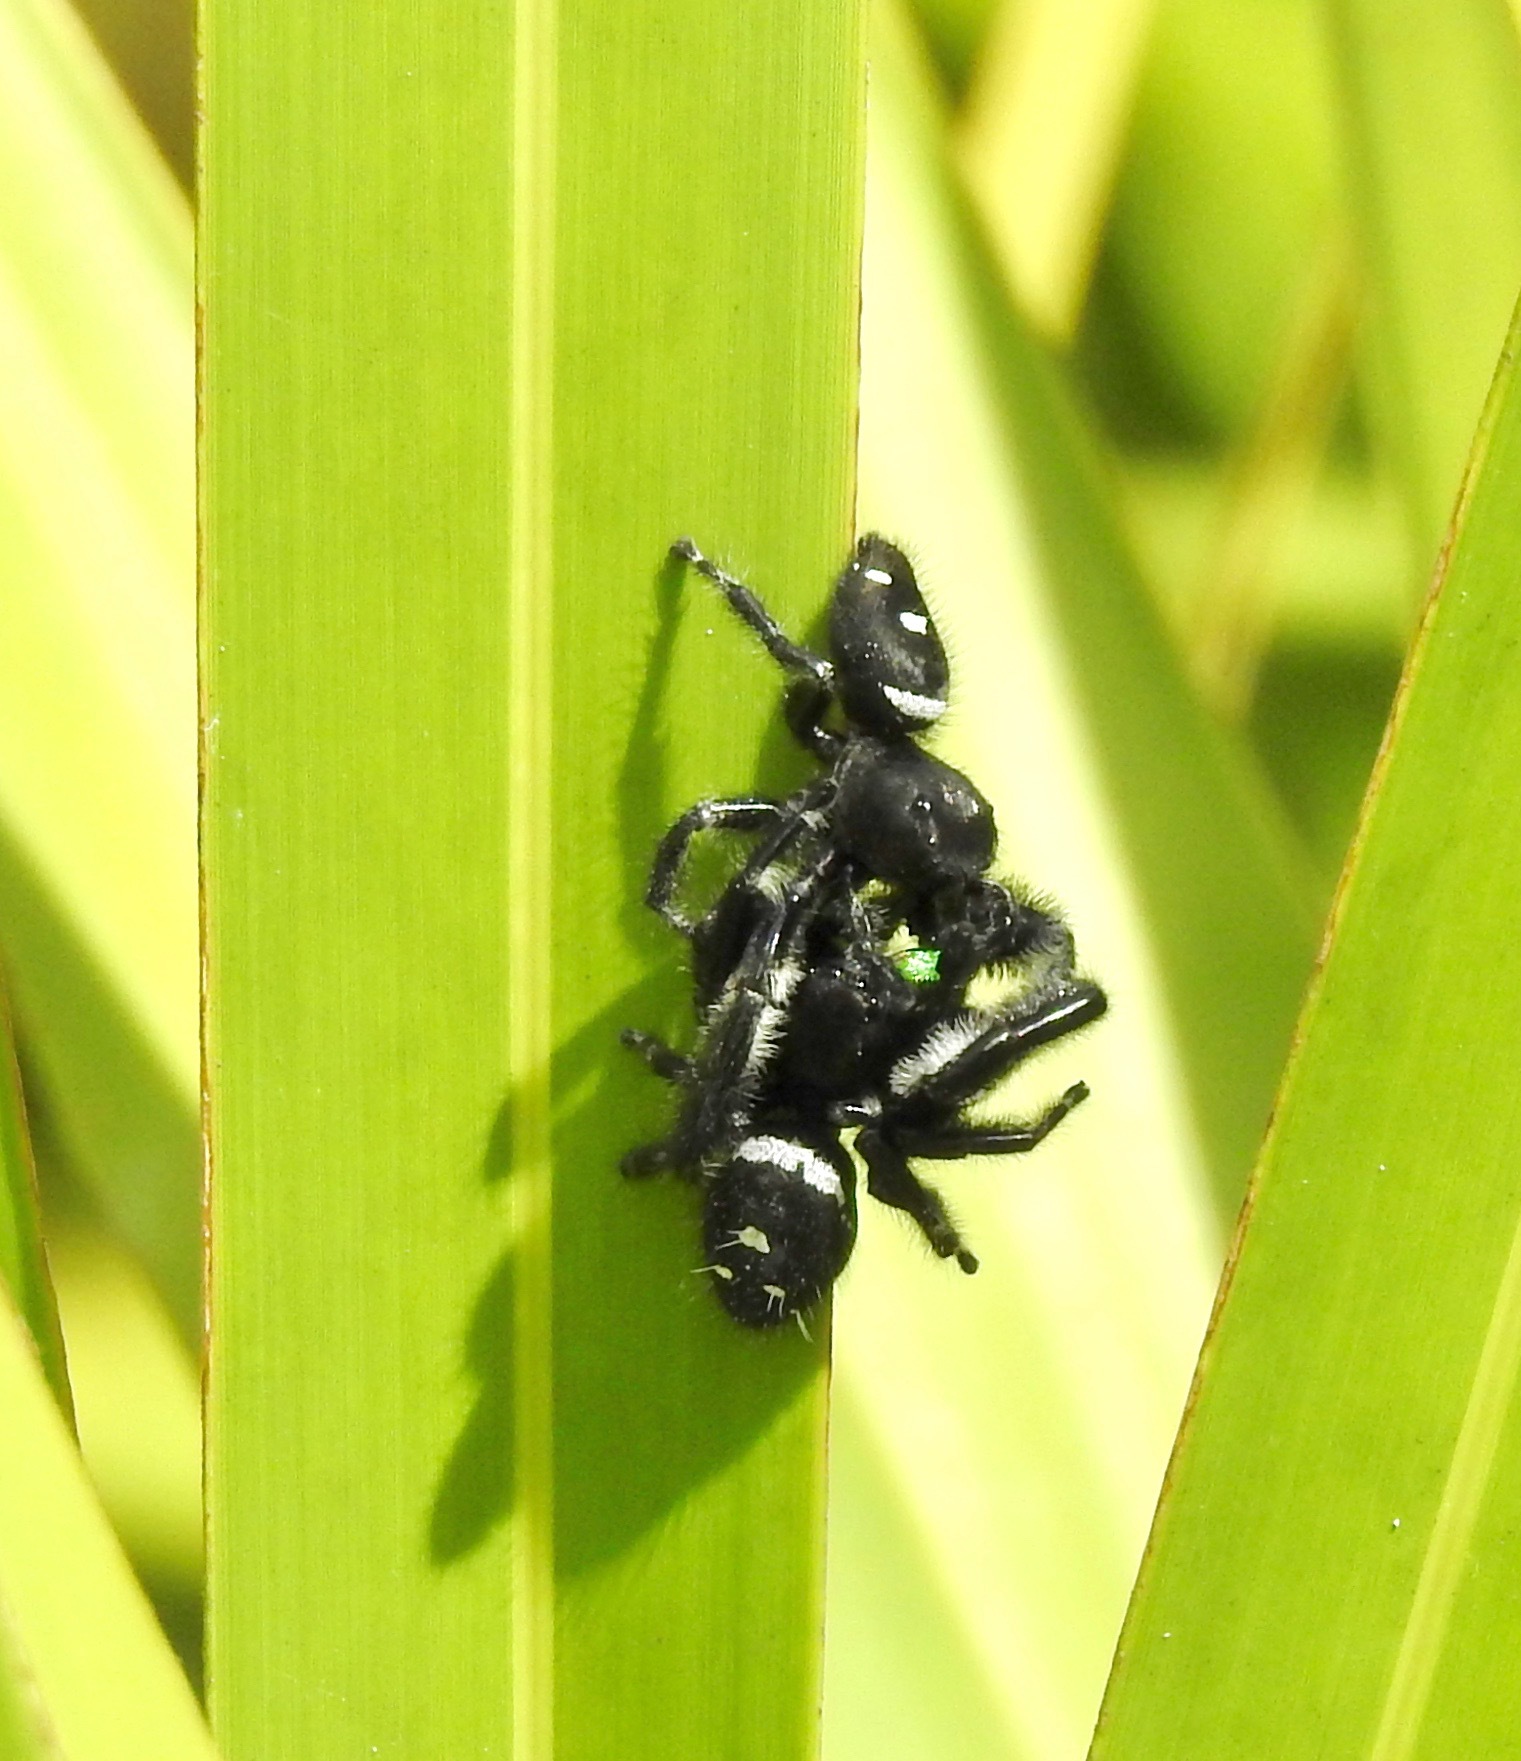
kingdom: Animalia
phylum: Arthropoda
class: Arachnida
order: Araneae
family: Salticidae
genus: Phidippus
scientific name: Phidippus regius
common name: Regal jumper
